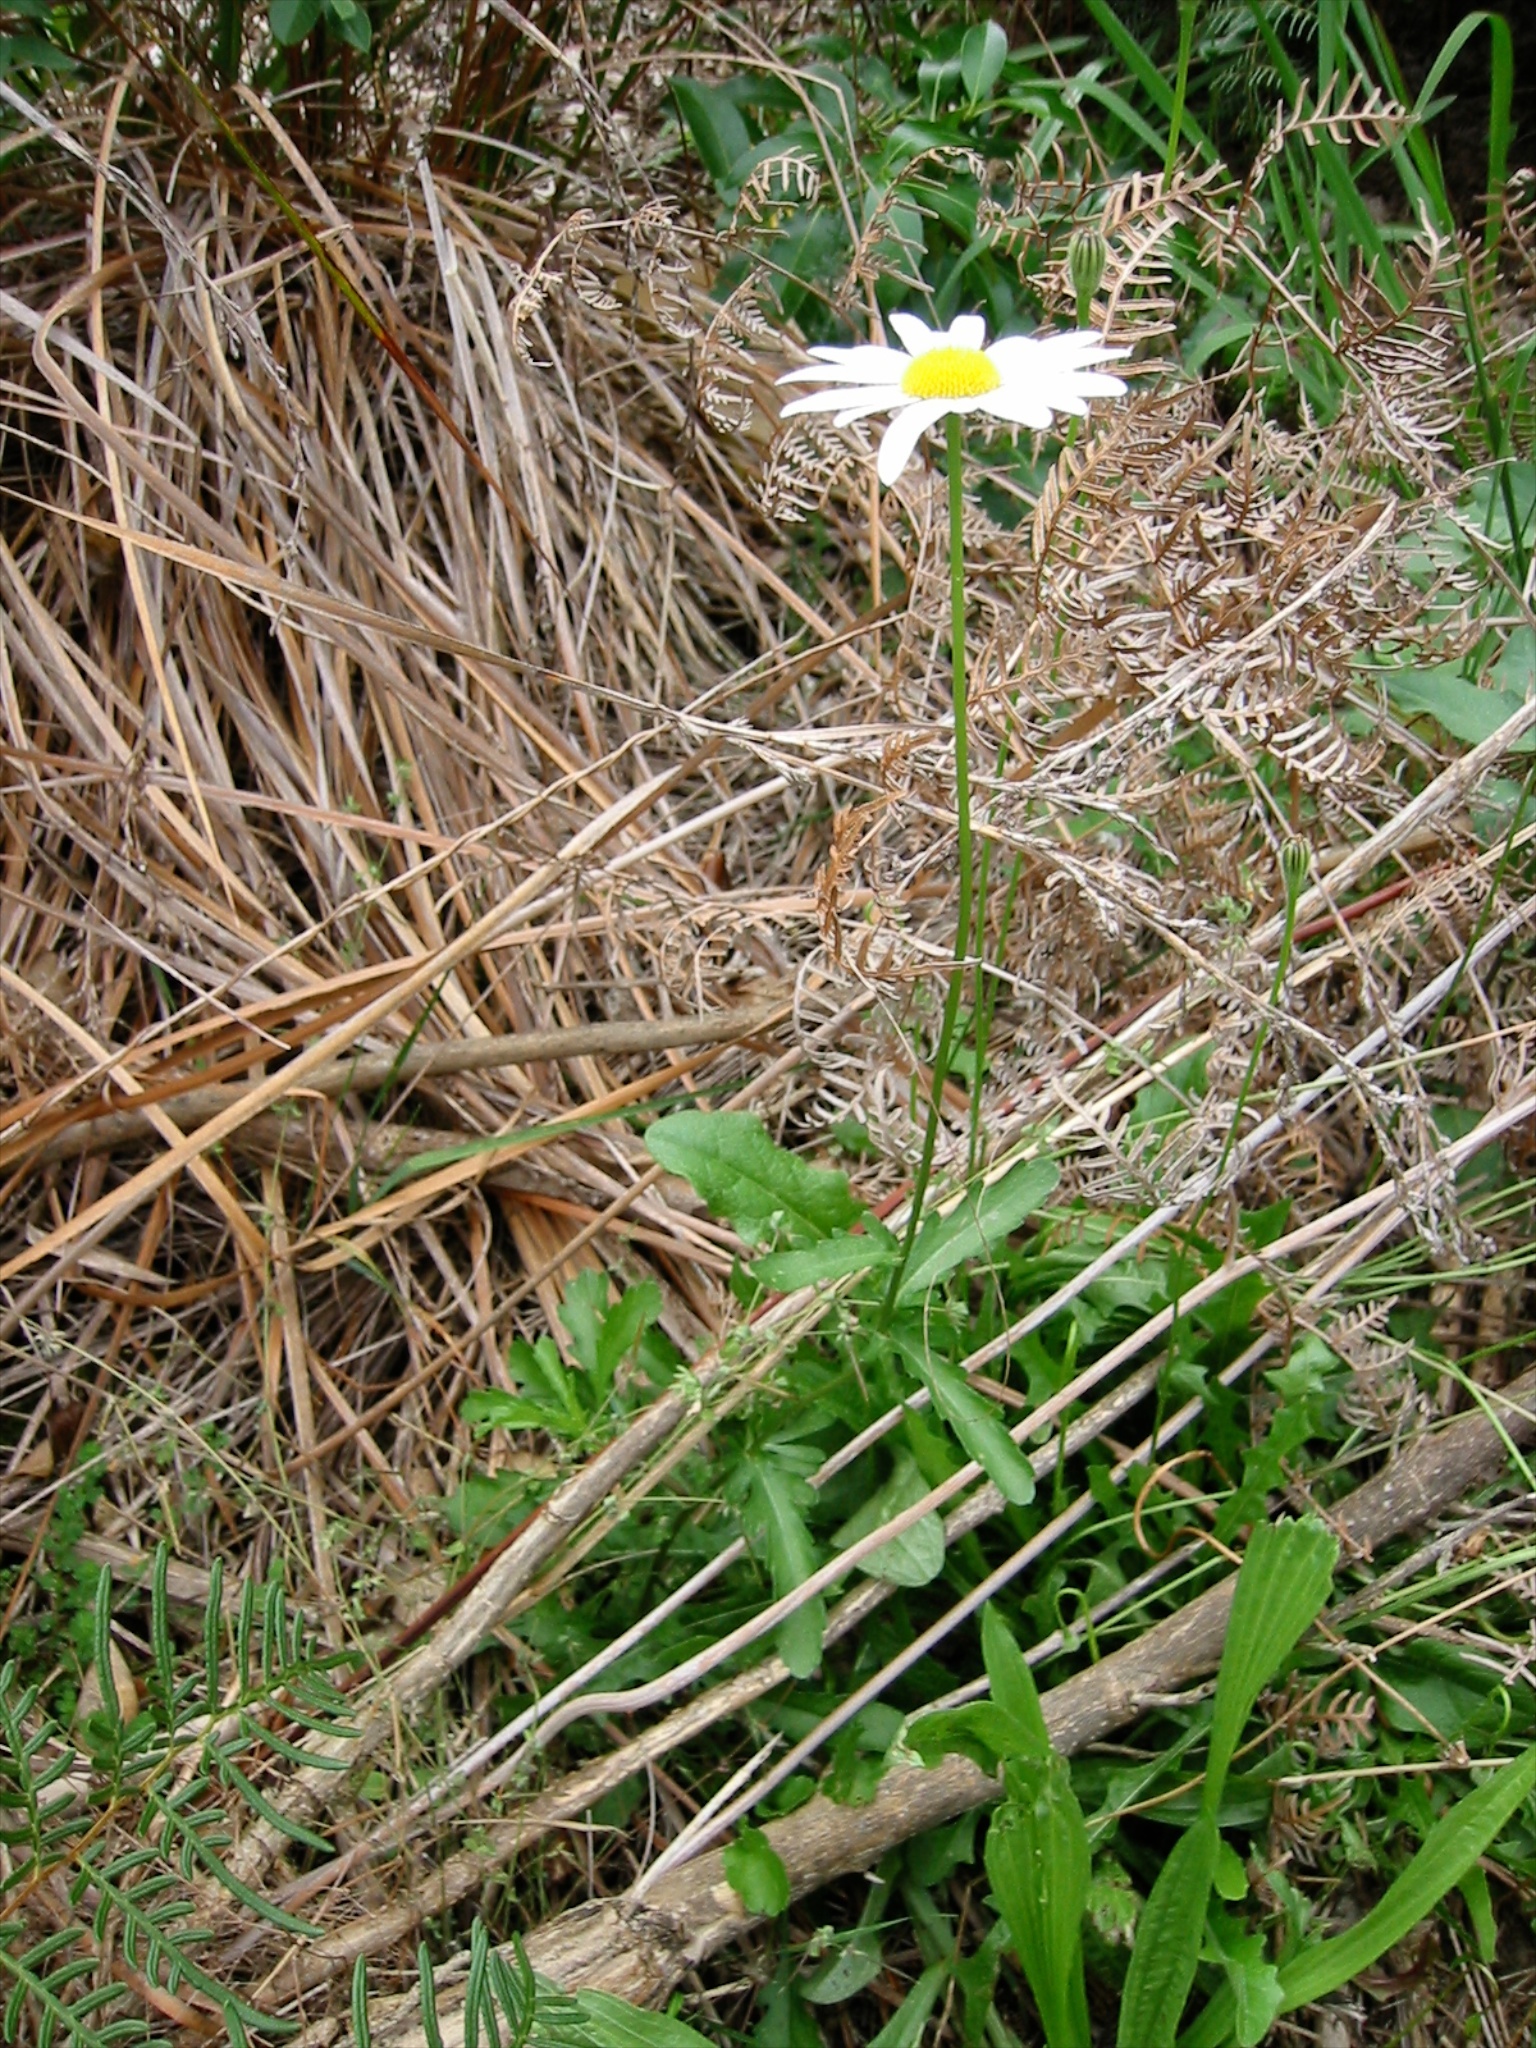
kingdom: Plantae
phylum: Tracheophyta
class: Magnoliopsida
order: Asterales
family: Asteraceae
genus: Leucanthemum
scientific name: Leucanthemum vulgare
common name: Oxeye daisy
